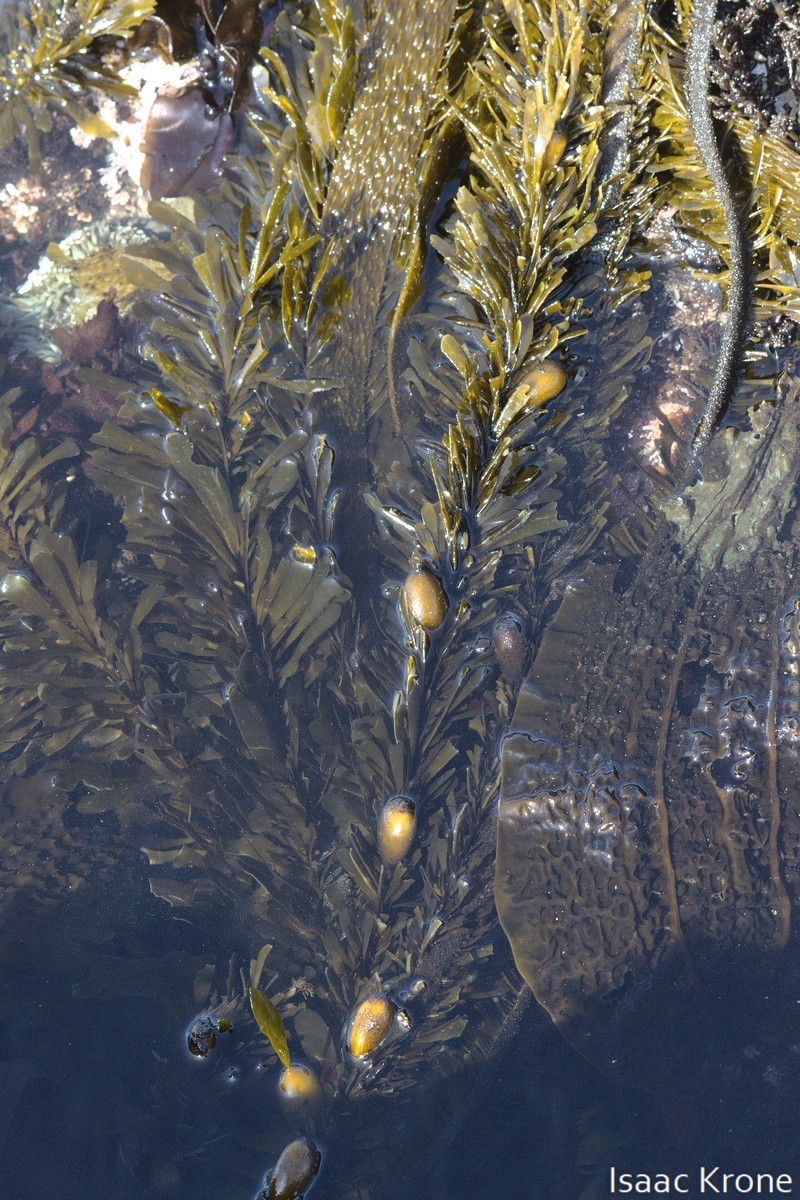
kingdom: Chromista
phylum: Ochrophyta
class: Phaeophyceae
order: Laminariales
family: Lessoniaceae
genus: Egregia
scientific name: Egregia menziesii
